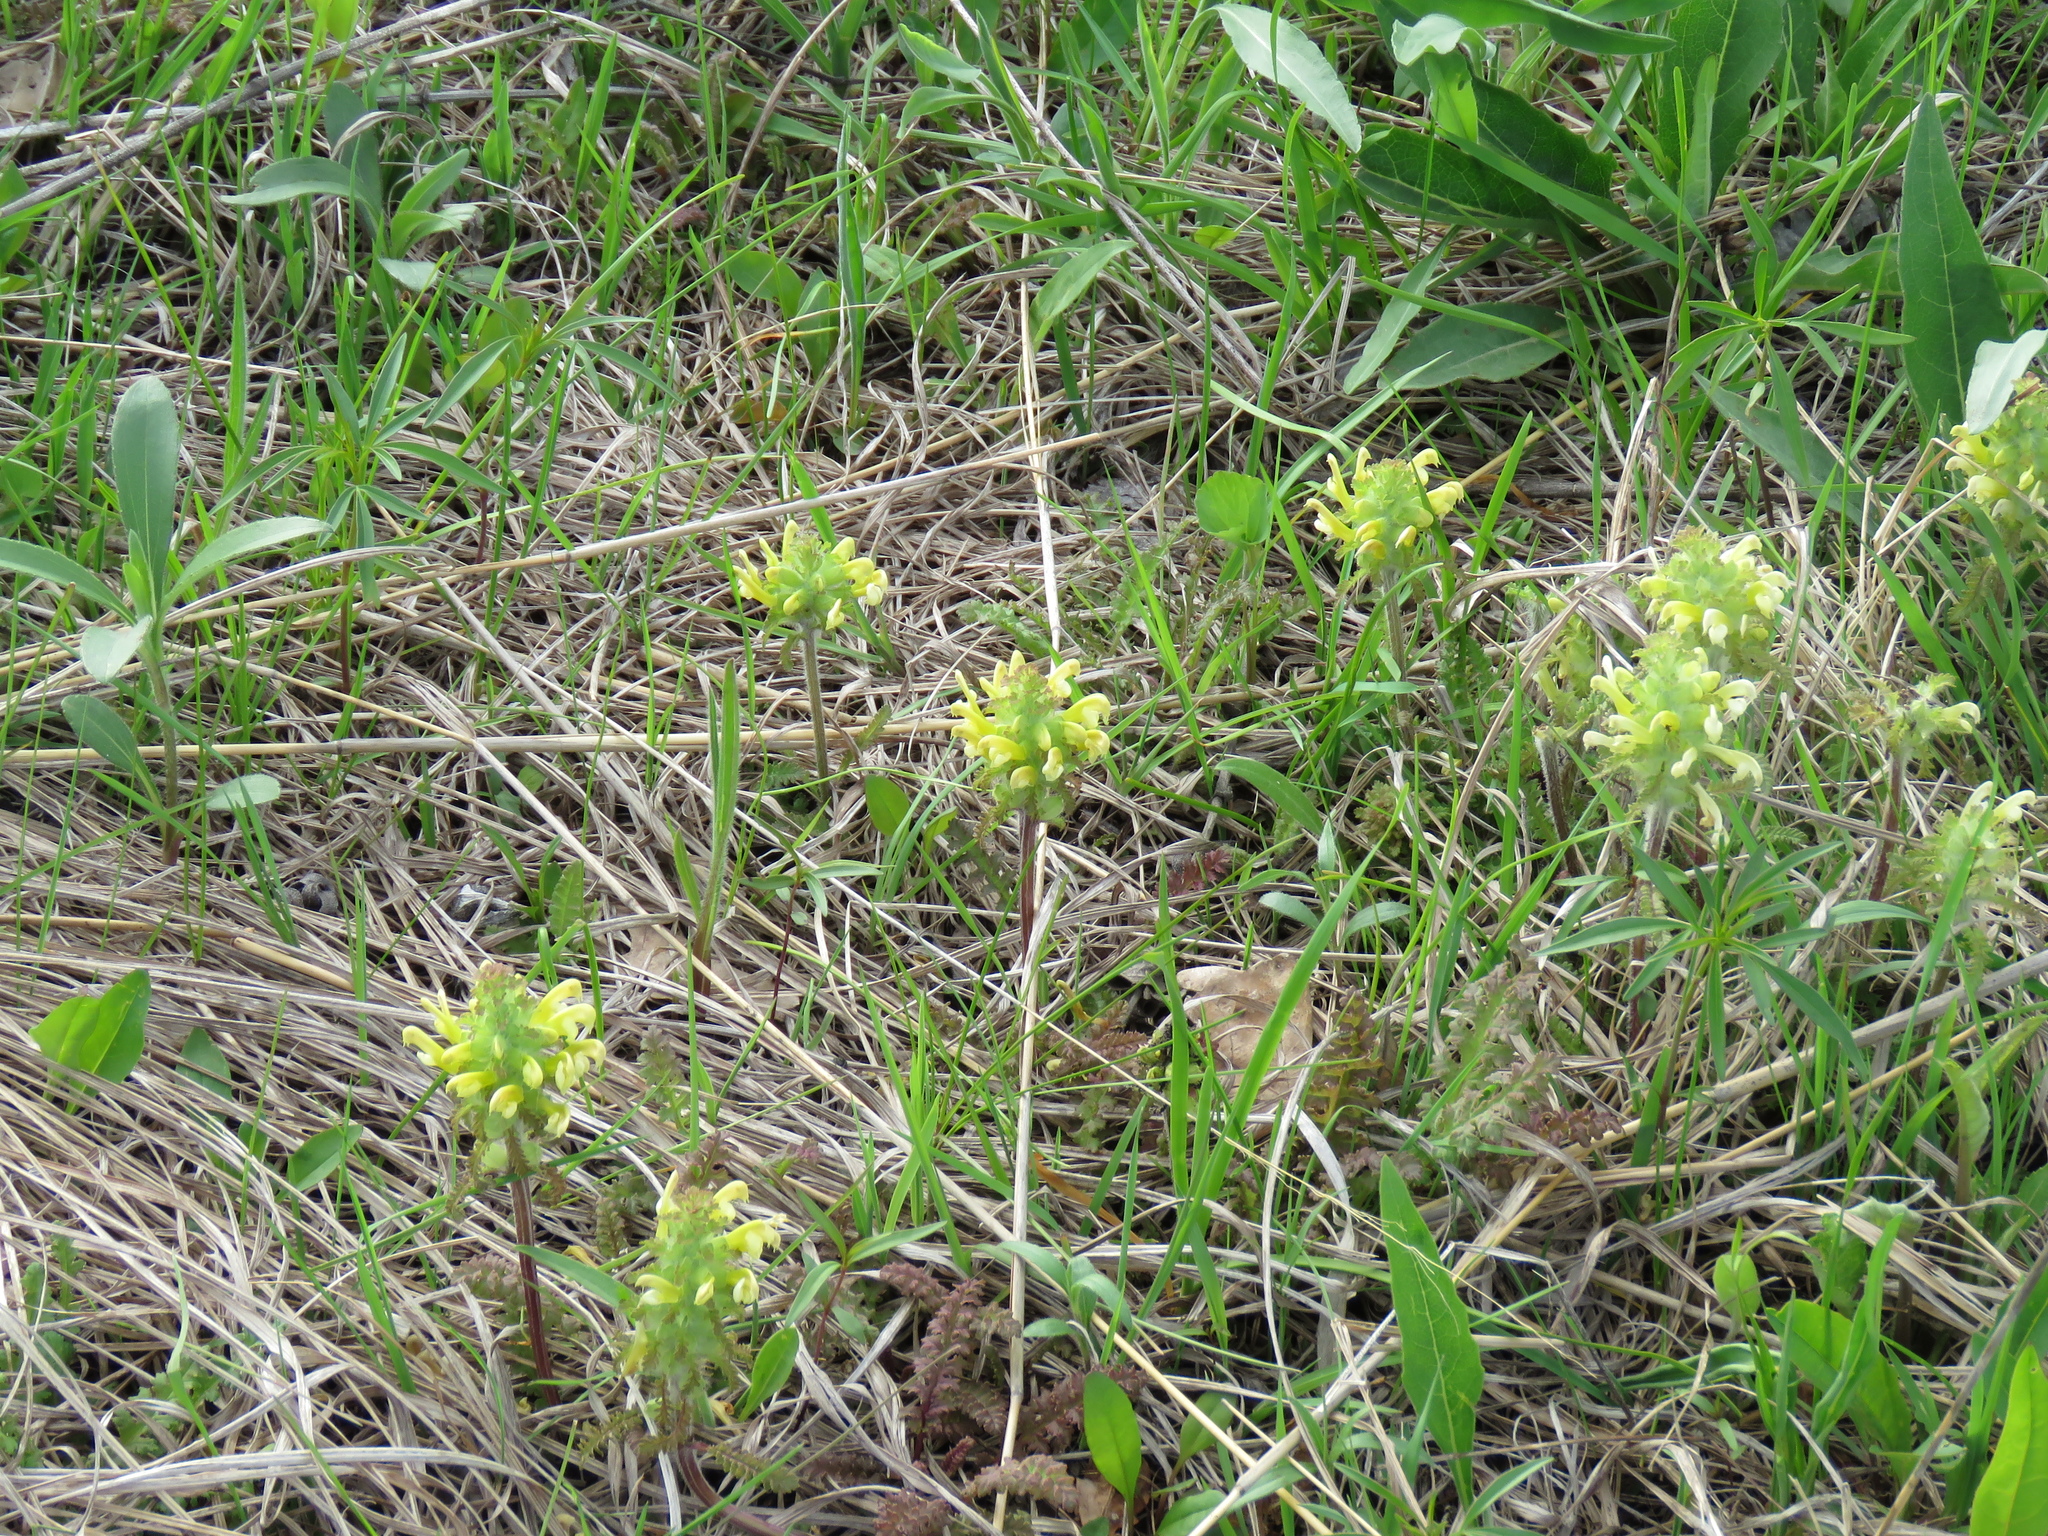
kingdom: Plantae
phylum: Tracheophyta
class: Magnoliopsida
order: Lamiales
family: Orobanchaceae
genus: Pedicularis
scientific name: Pedicularis canadensis
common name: Early lousewort
